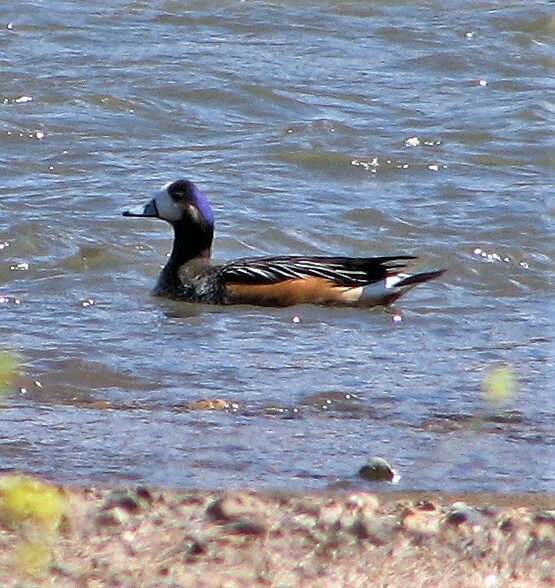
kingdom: Animalia
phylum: Chordata
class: Aves
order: Anseriformes
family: Anatidae
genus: Mareca
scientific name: Mareca sibilatrix
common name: Chiloe wigeon
